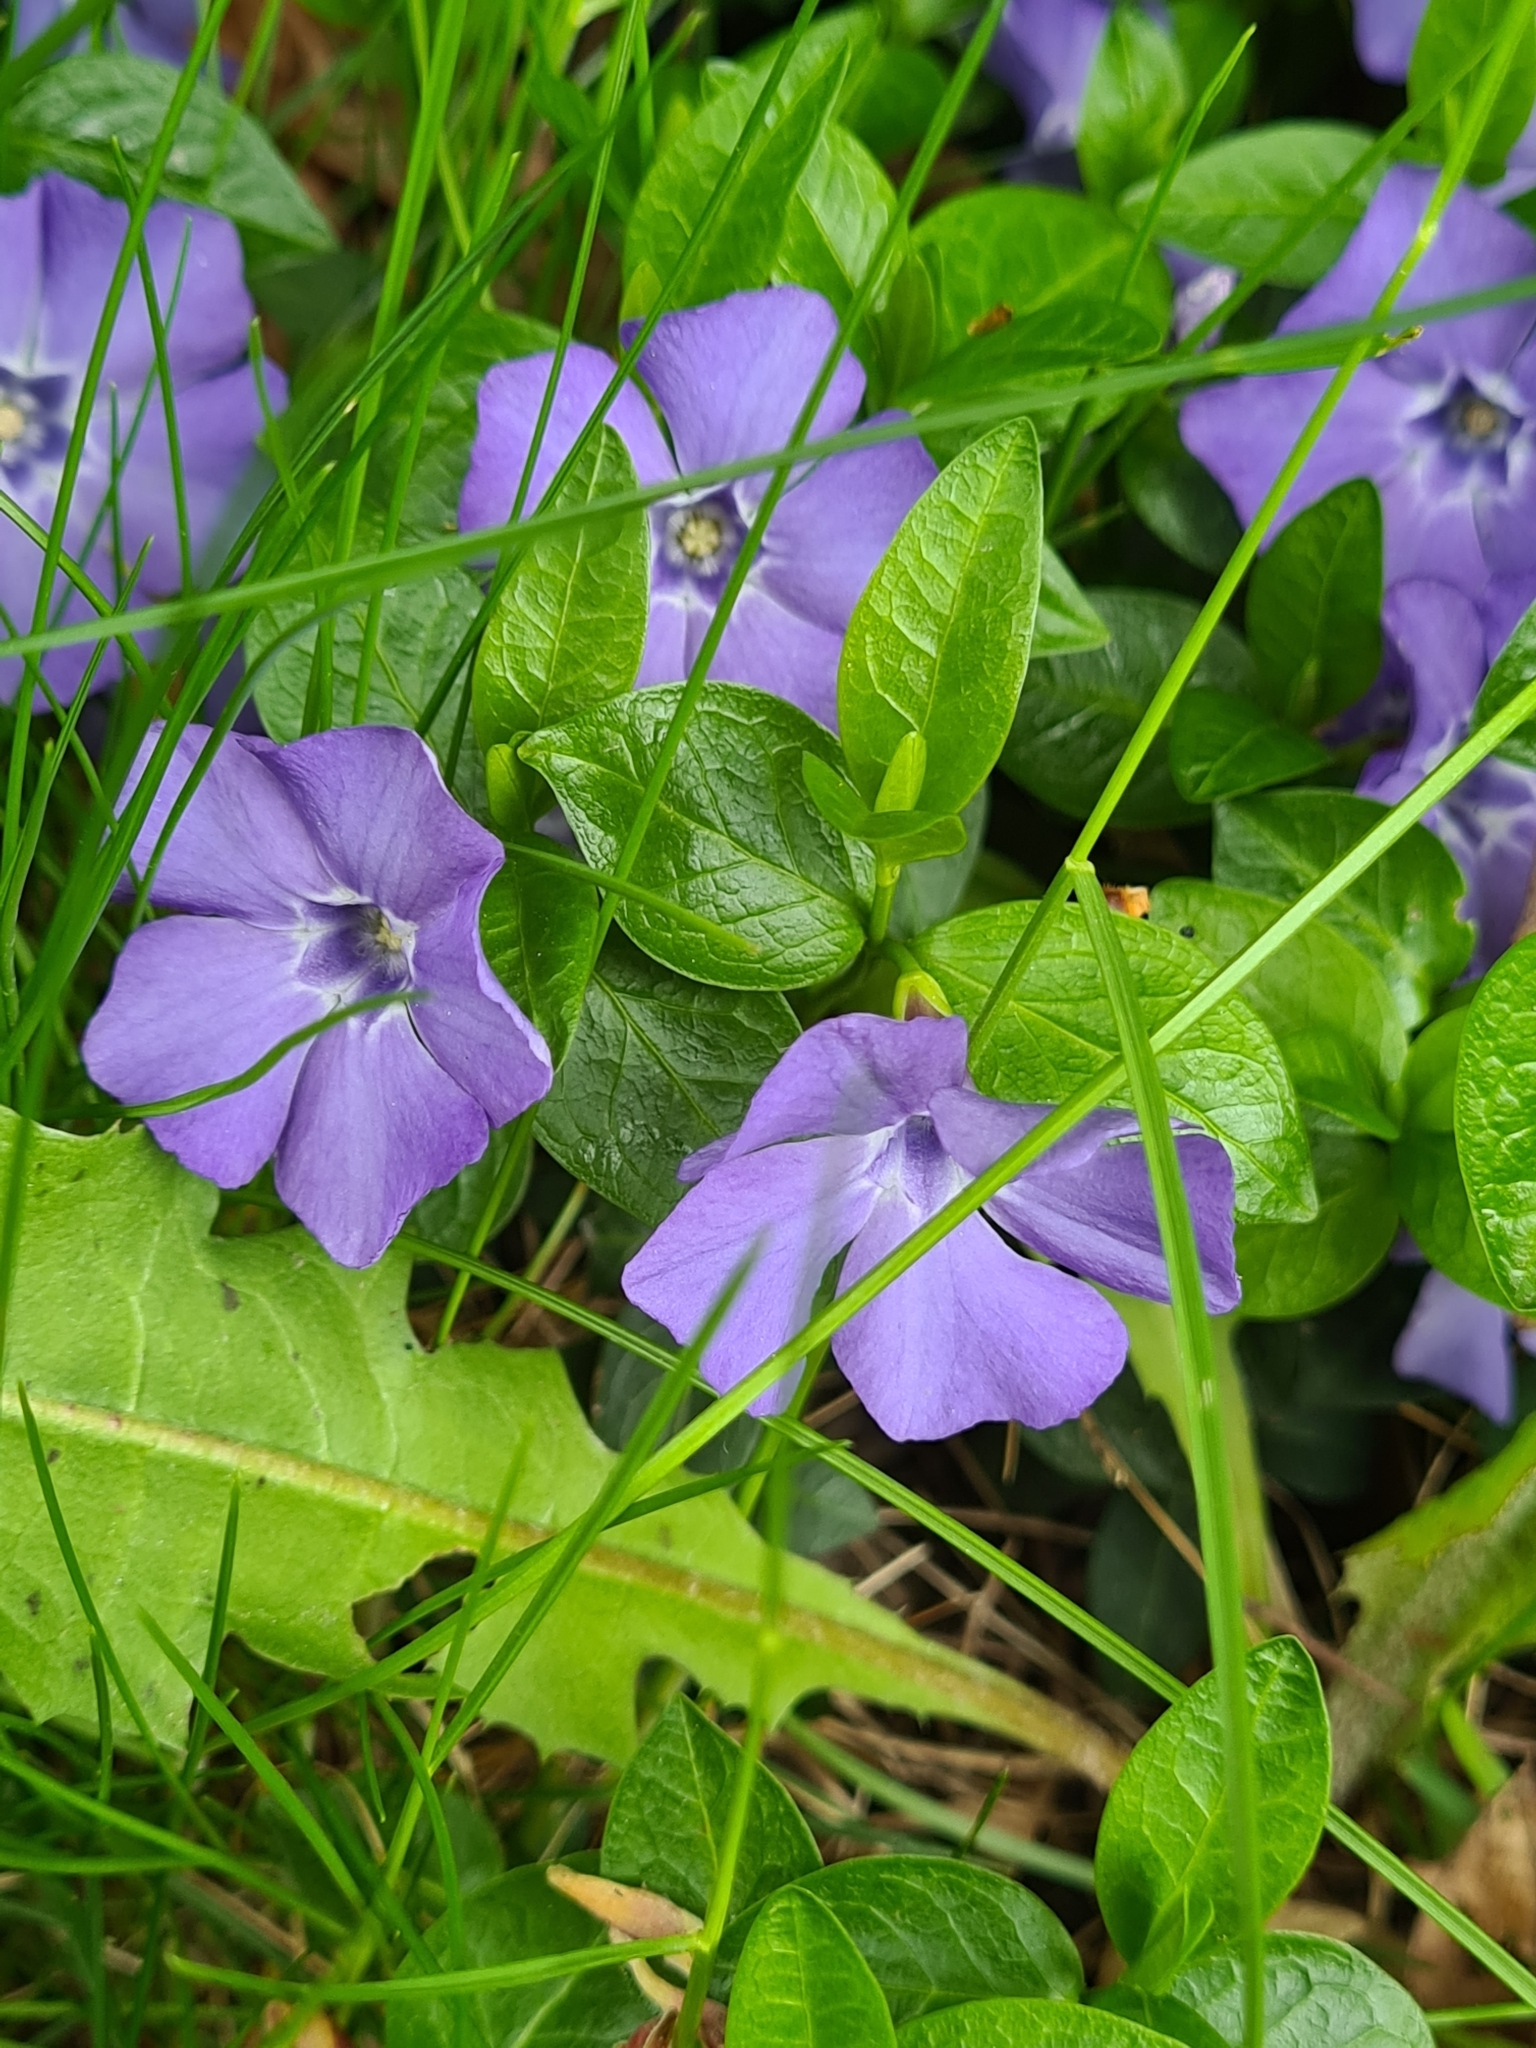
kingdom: Plantae
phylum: Tracheophyta
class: Magnoliopsida
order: Gentianales
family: Apocynaceae
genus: Vinca
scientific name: Vinca minor
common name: Lesser periwinkle
